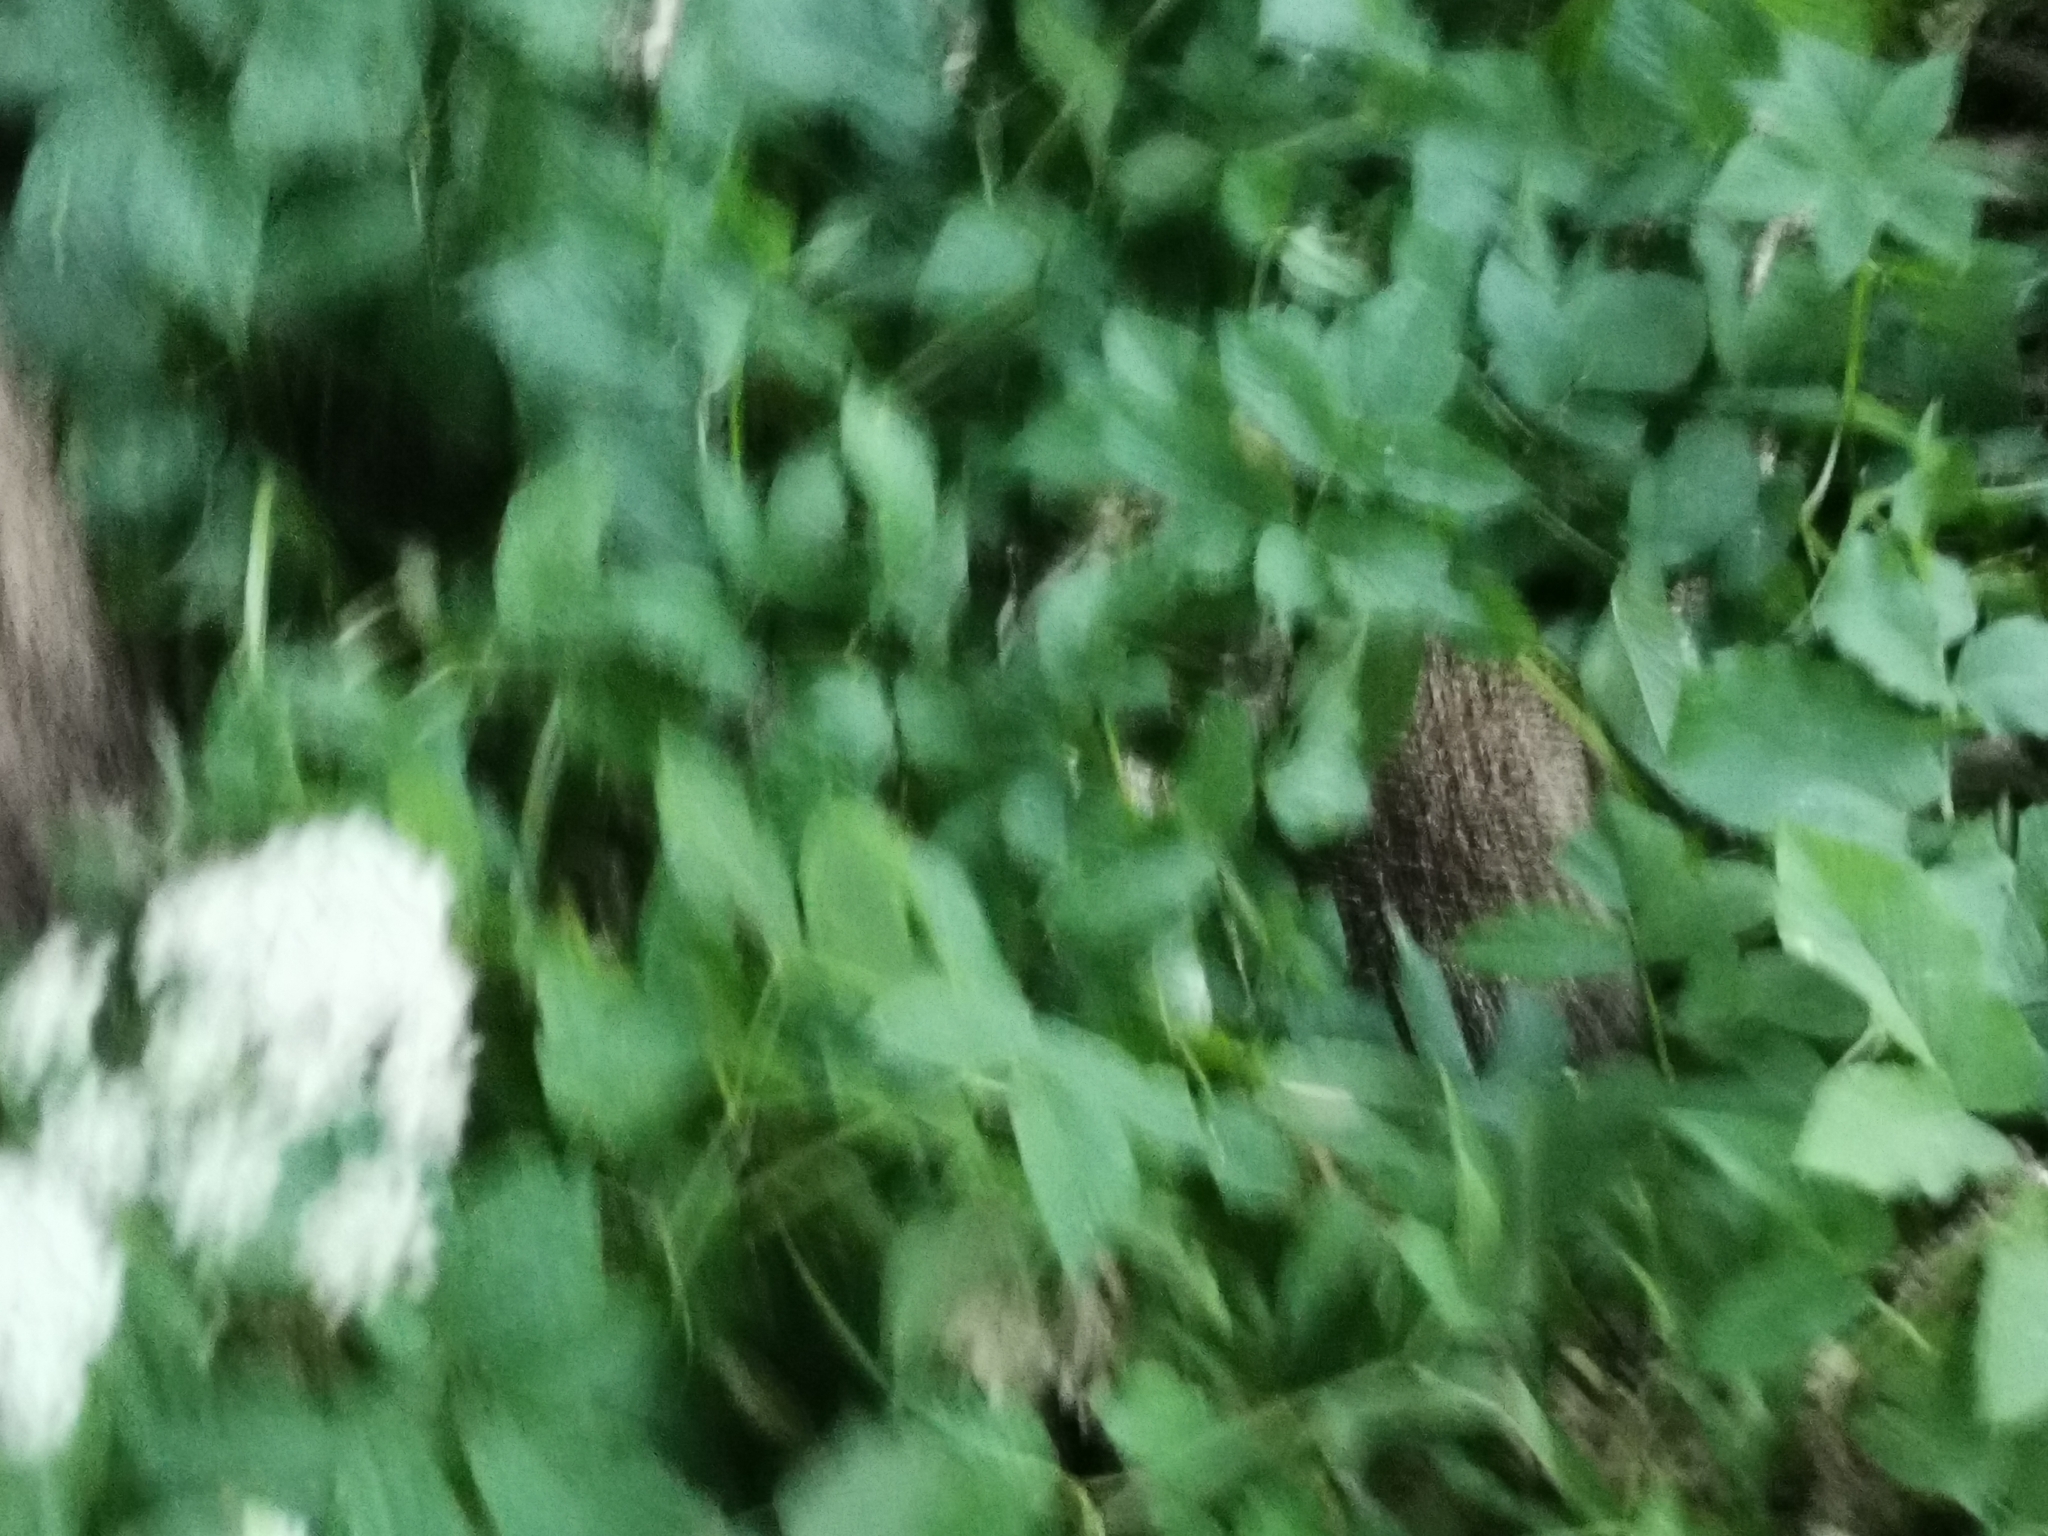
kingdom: Animalia
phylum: Chordata
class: Mammalia
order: Erinaceomorpha
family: Erinaceidae
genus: Erinaceus
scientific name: Erinaceus europaeus
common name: West european hedgehog
